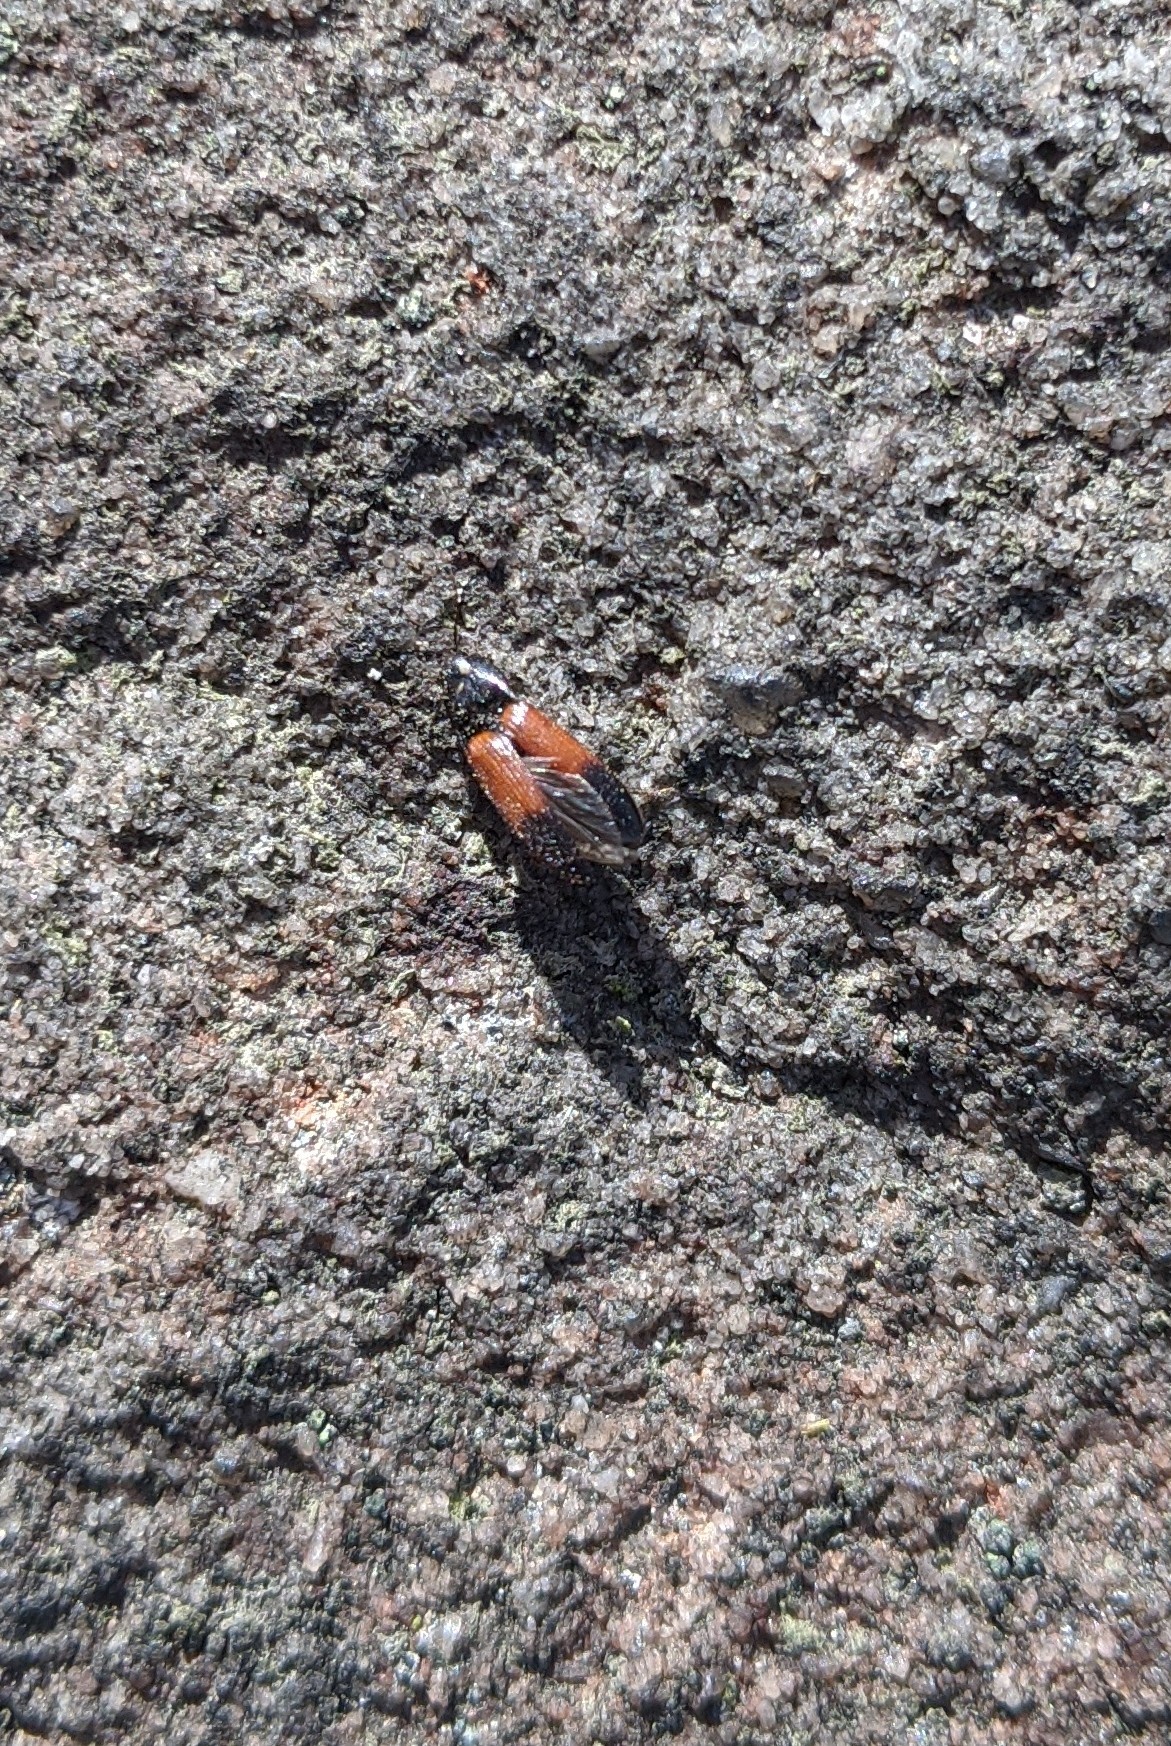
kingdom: Animalia
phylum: Arthropoda
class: Insecta
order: Coleoptera
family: Elateridae
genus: Ampedus
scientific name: Ampedus balteatus
